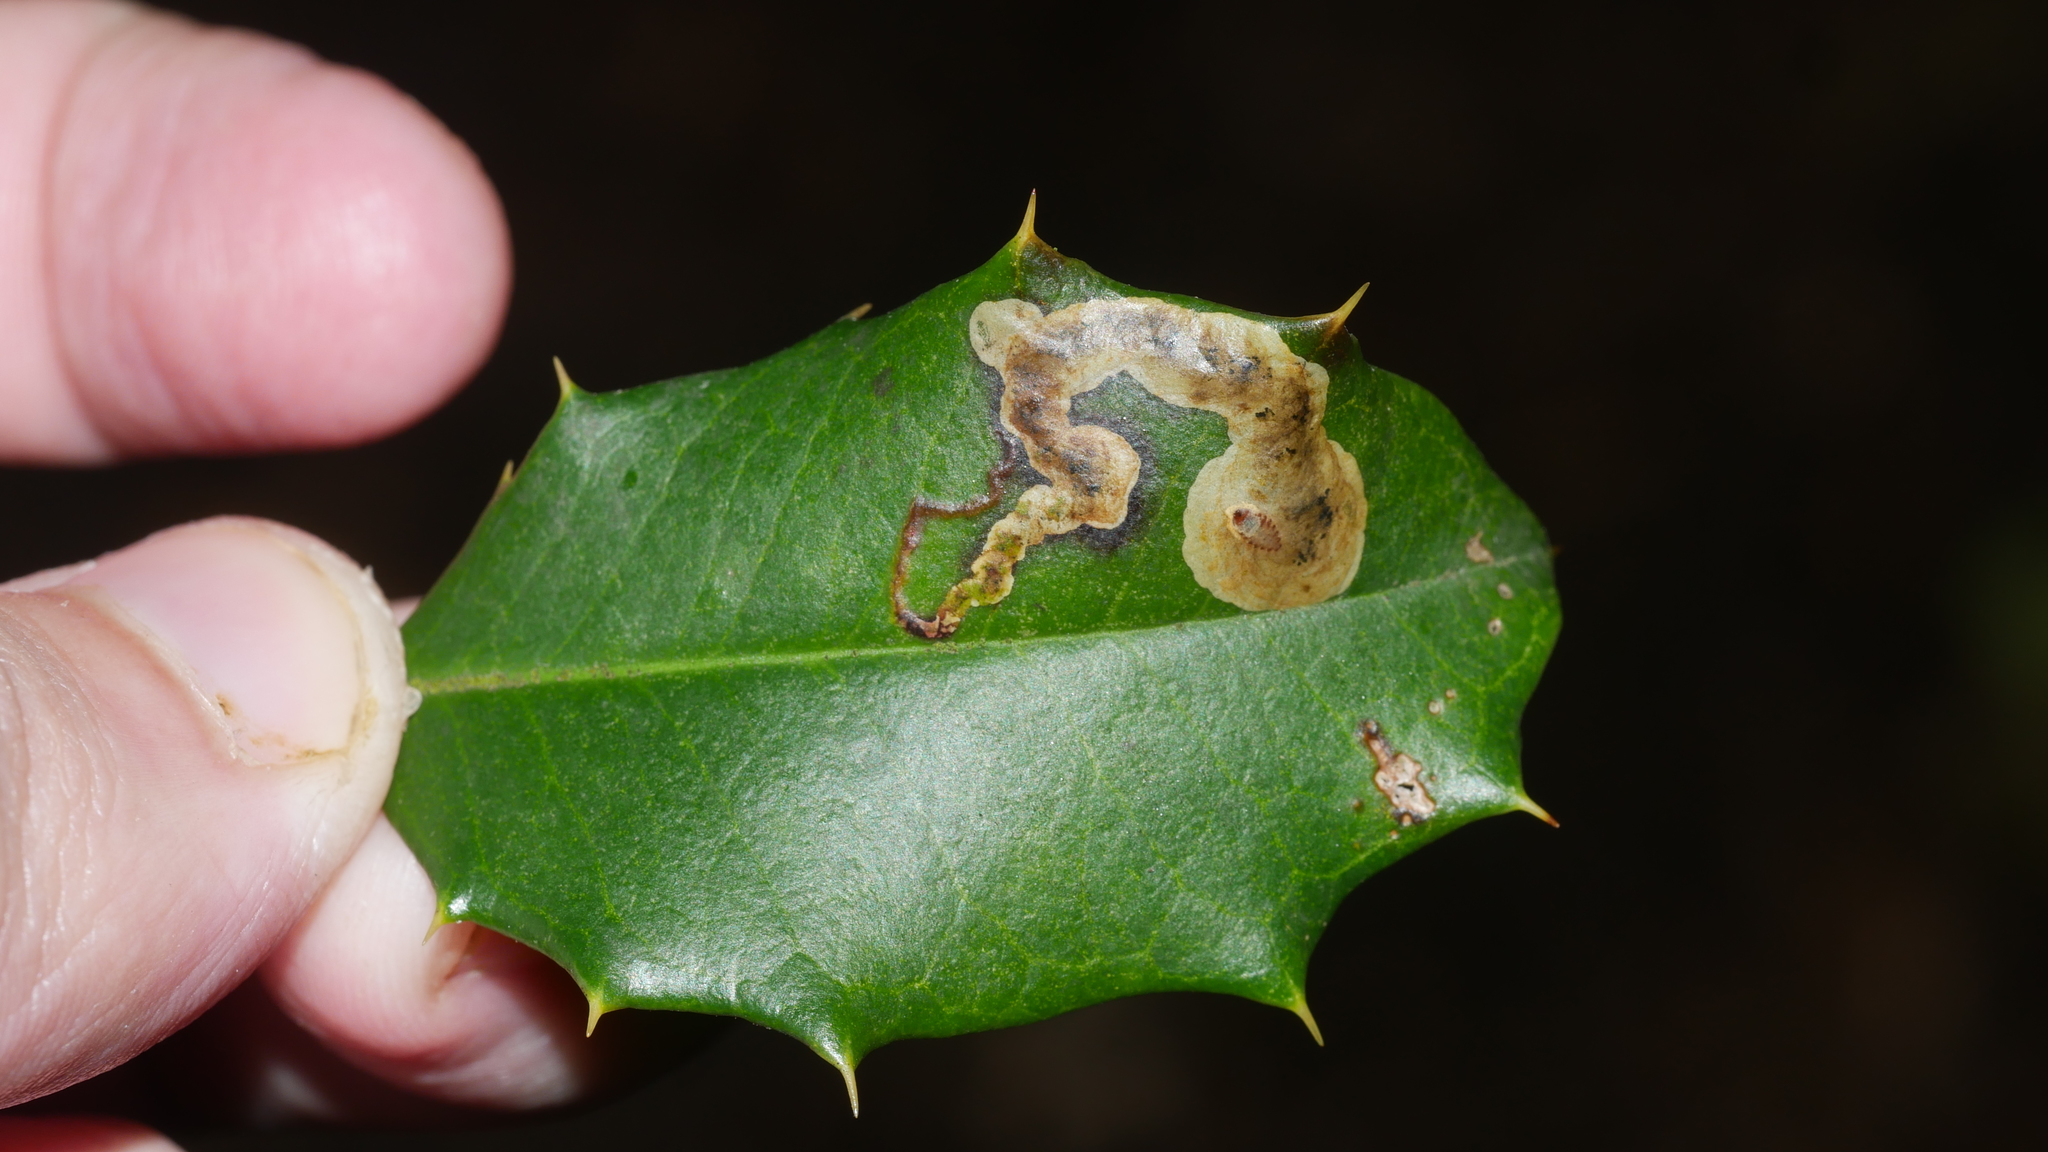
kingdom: Animalia
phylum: Arthropoda
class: Insecta
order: Diptera
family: Agromyzidae
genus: Phytomyza
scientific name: Phytomyza ilicicola
